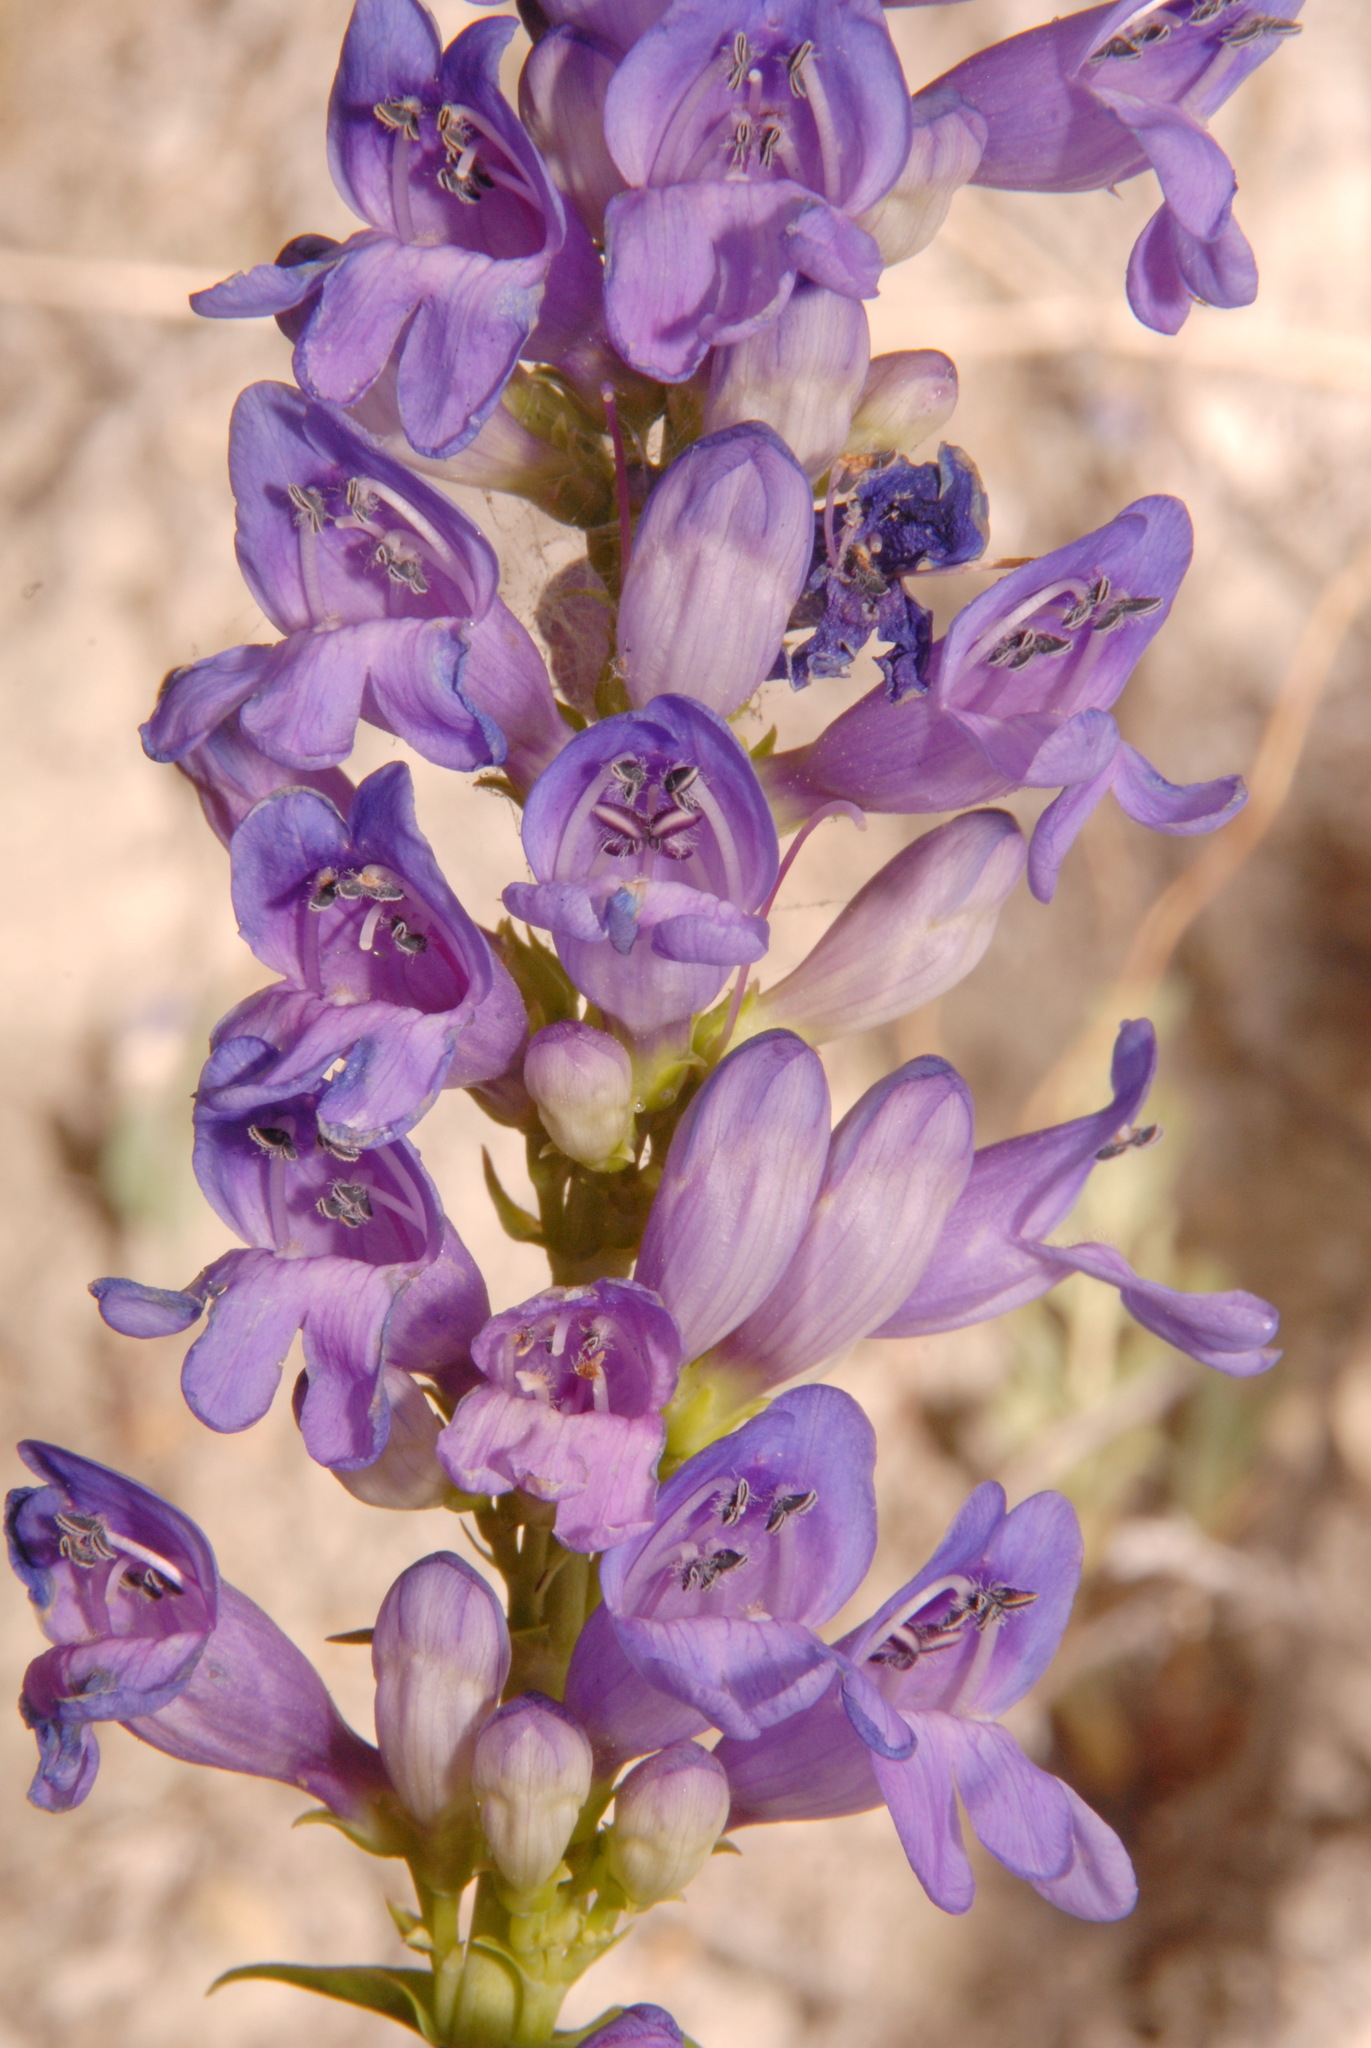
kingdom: Plantae
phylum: Tracheophyta
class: Magnoliopsida
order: Lamiales
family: Plantaginaceae
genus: Penstemon
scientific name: Penstemon strictus
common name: Rocky mountain penstemon
